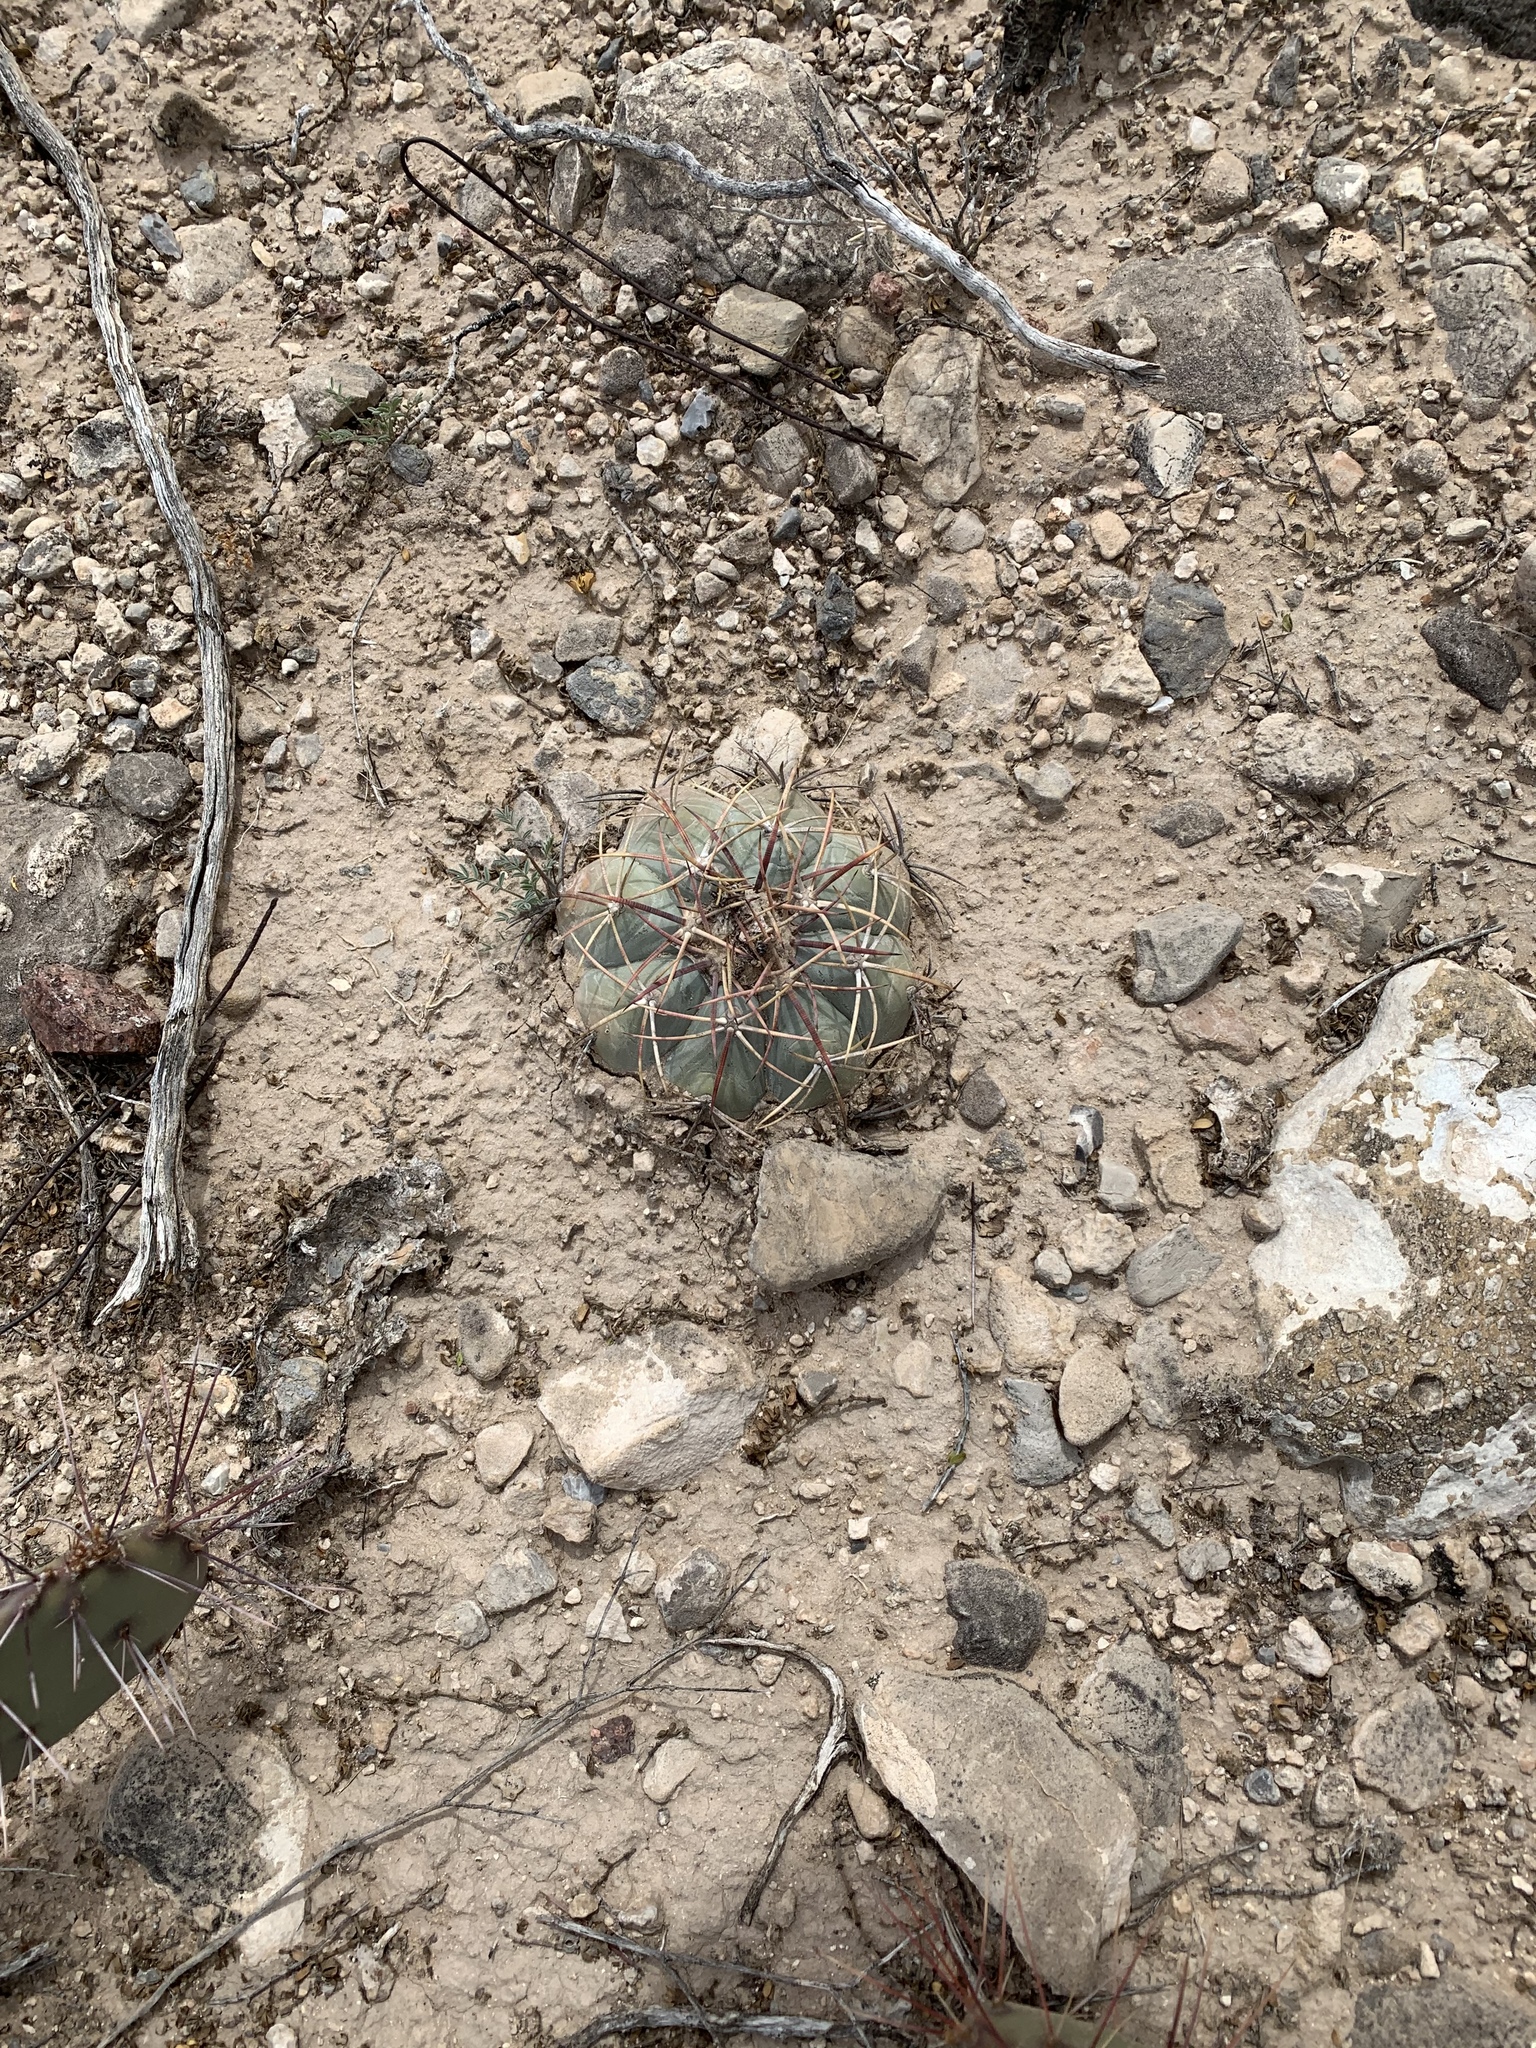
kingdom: Plantae
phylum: Tracheophyta
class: Magnoliopsida
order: Caryophyllales
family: Cactaceae
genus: Echinocactus
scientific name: Echinocactus horizonthalonius
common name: Devilshead
